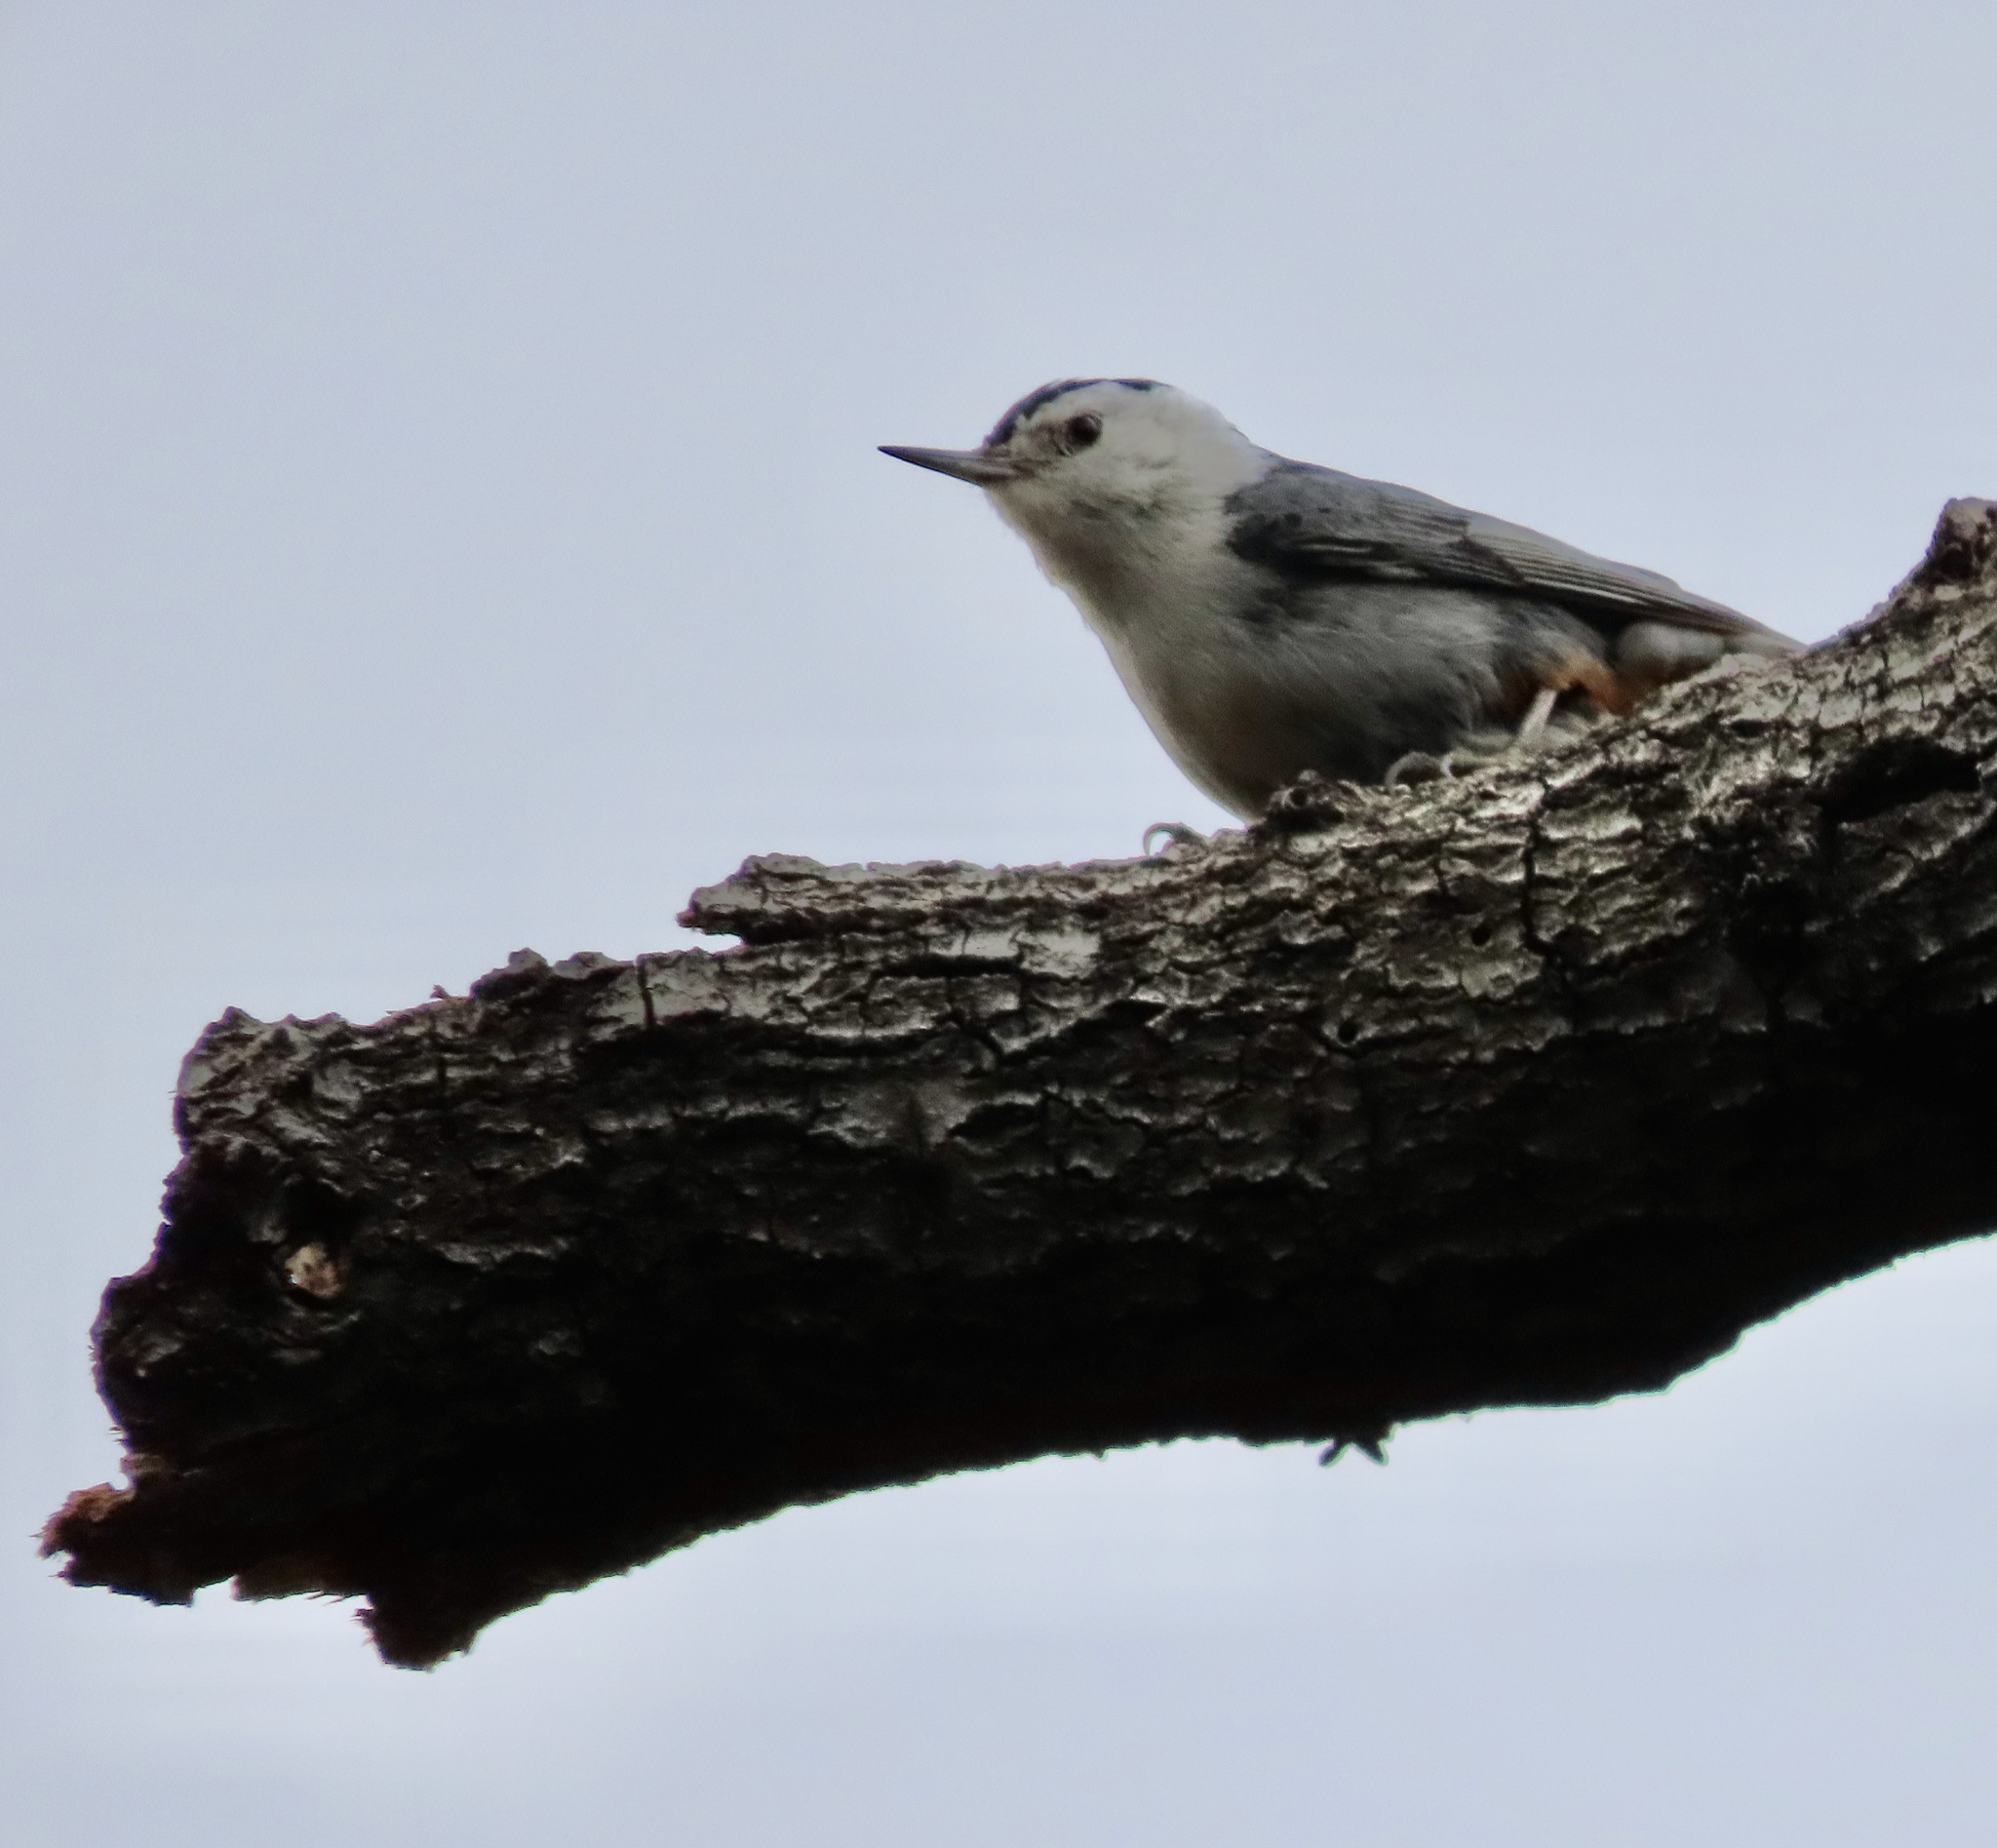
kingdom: Animalia
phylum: Chordata
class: Aves
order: Passeriformes
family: Sittidae
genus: Sitta
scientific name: Sitta carolinensis
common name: White-breasted nuthatch
